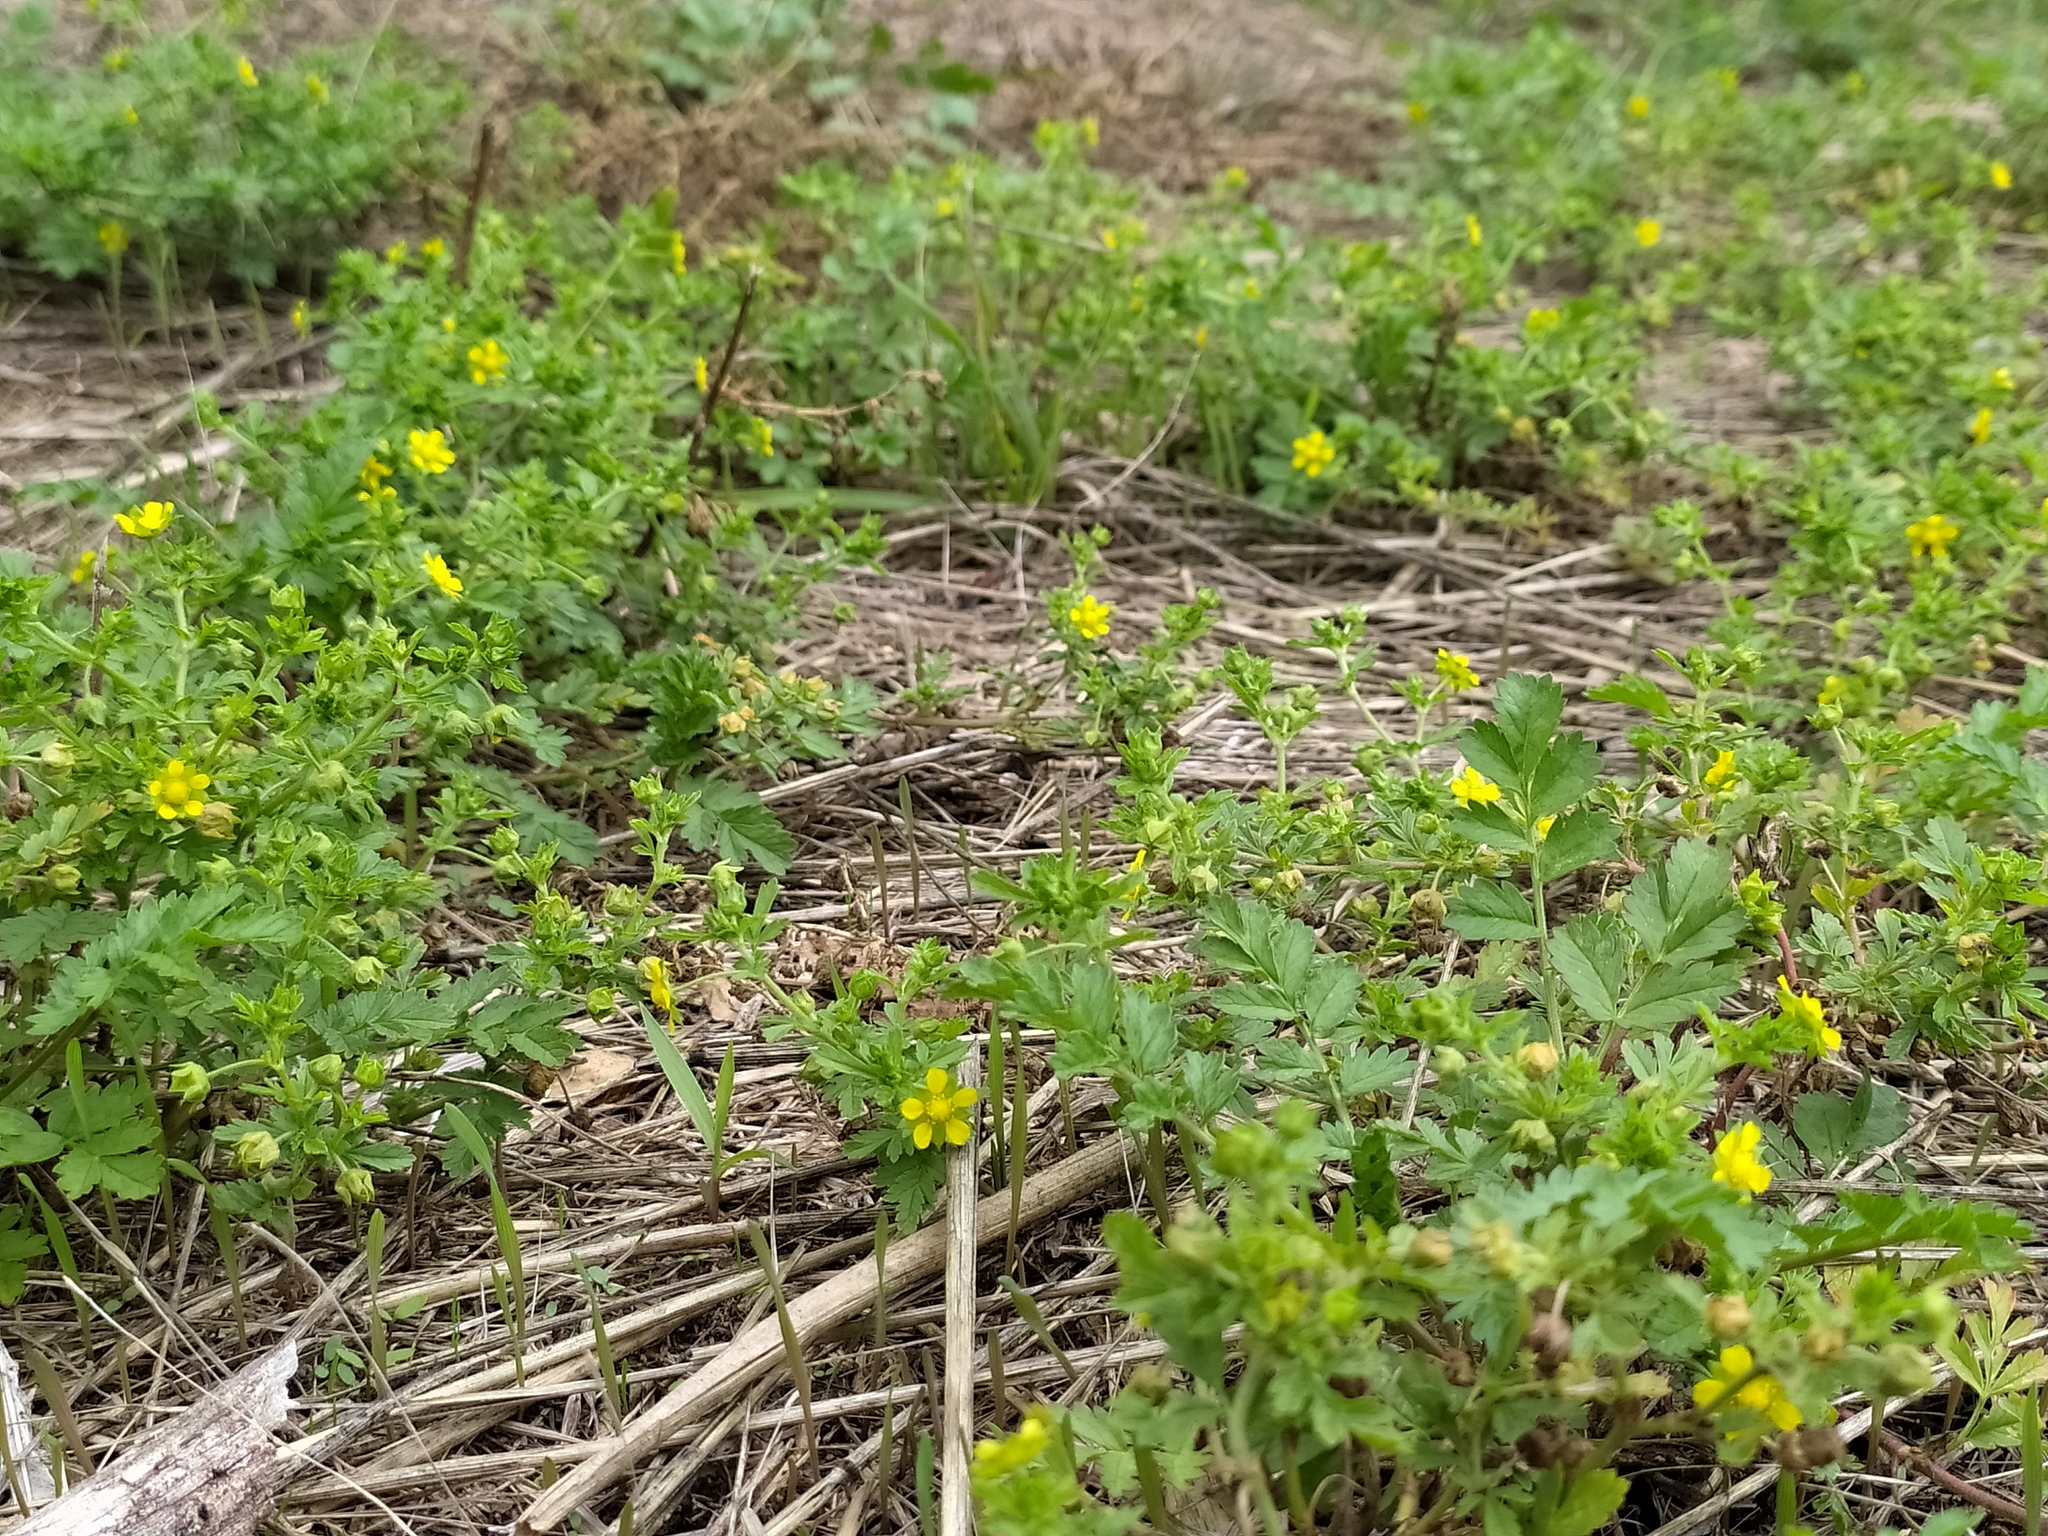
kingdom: Plantae
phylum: Tracheophyta
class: Magnoliopsida
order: Rosales
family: Rosaceae
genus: Potentilla
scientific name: Potentilla supina
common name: Prostrate cinquefoil
